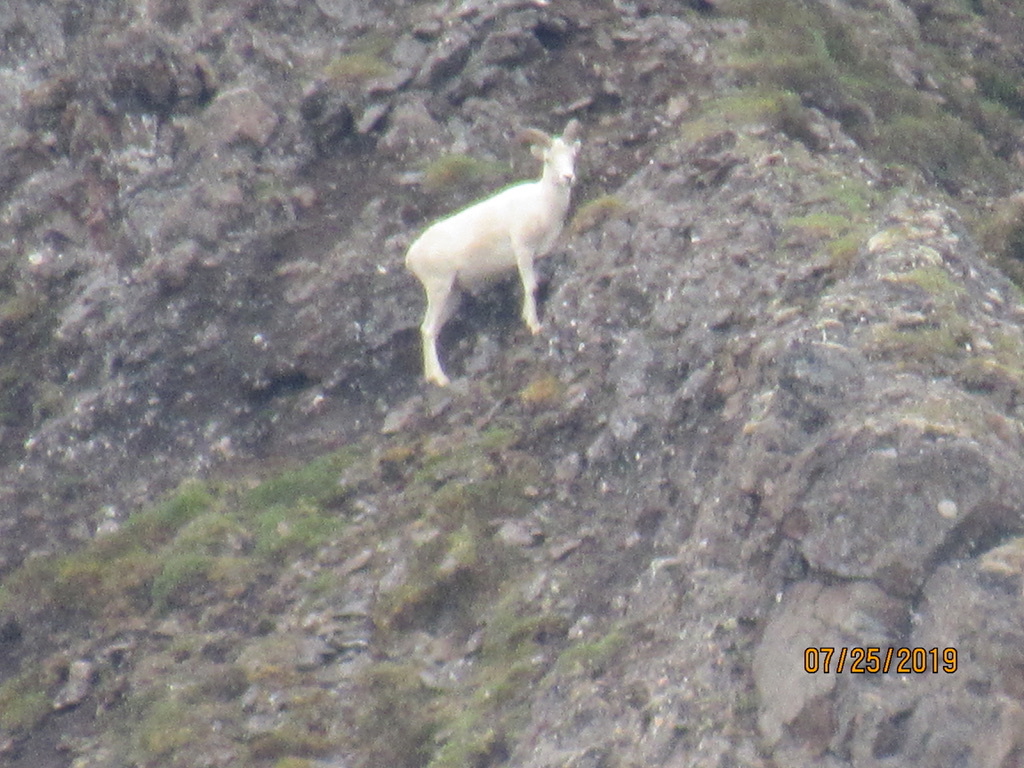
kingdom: Animalia
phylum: Chordata
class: Mammalia
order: Artiodactyla
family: Bovidae
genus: Ovis
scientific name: Ovis dalli
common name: Dall's sheep
